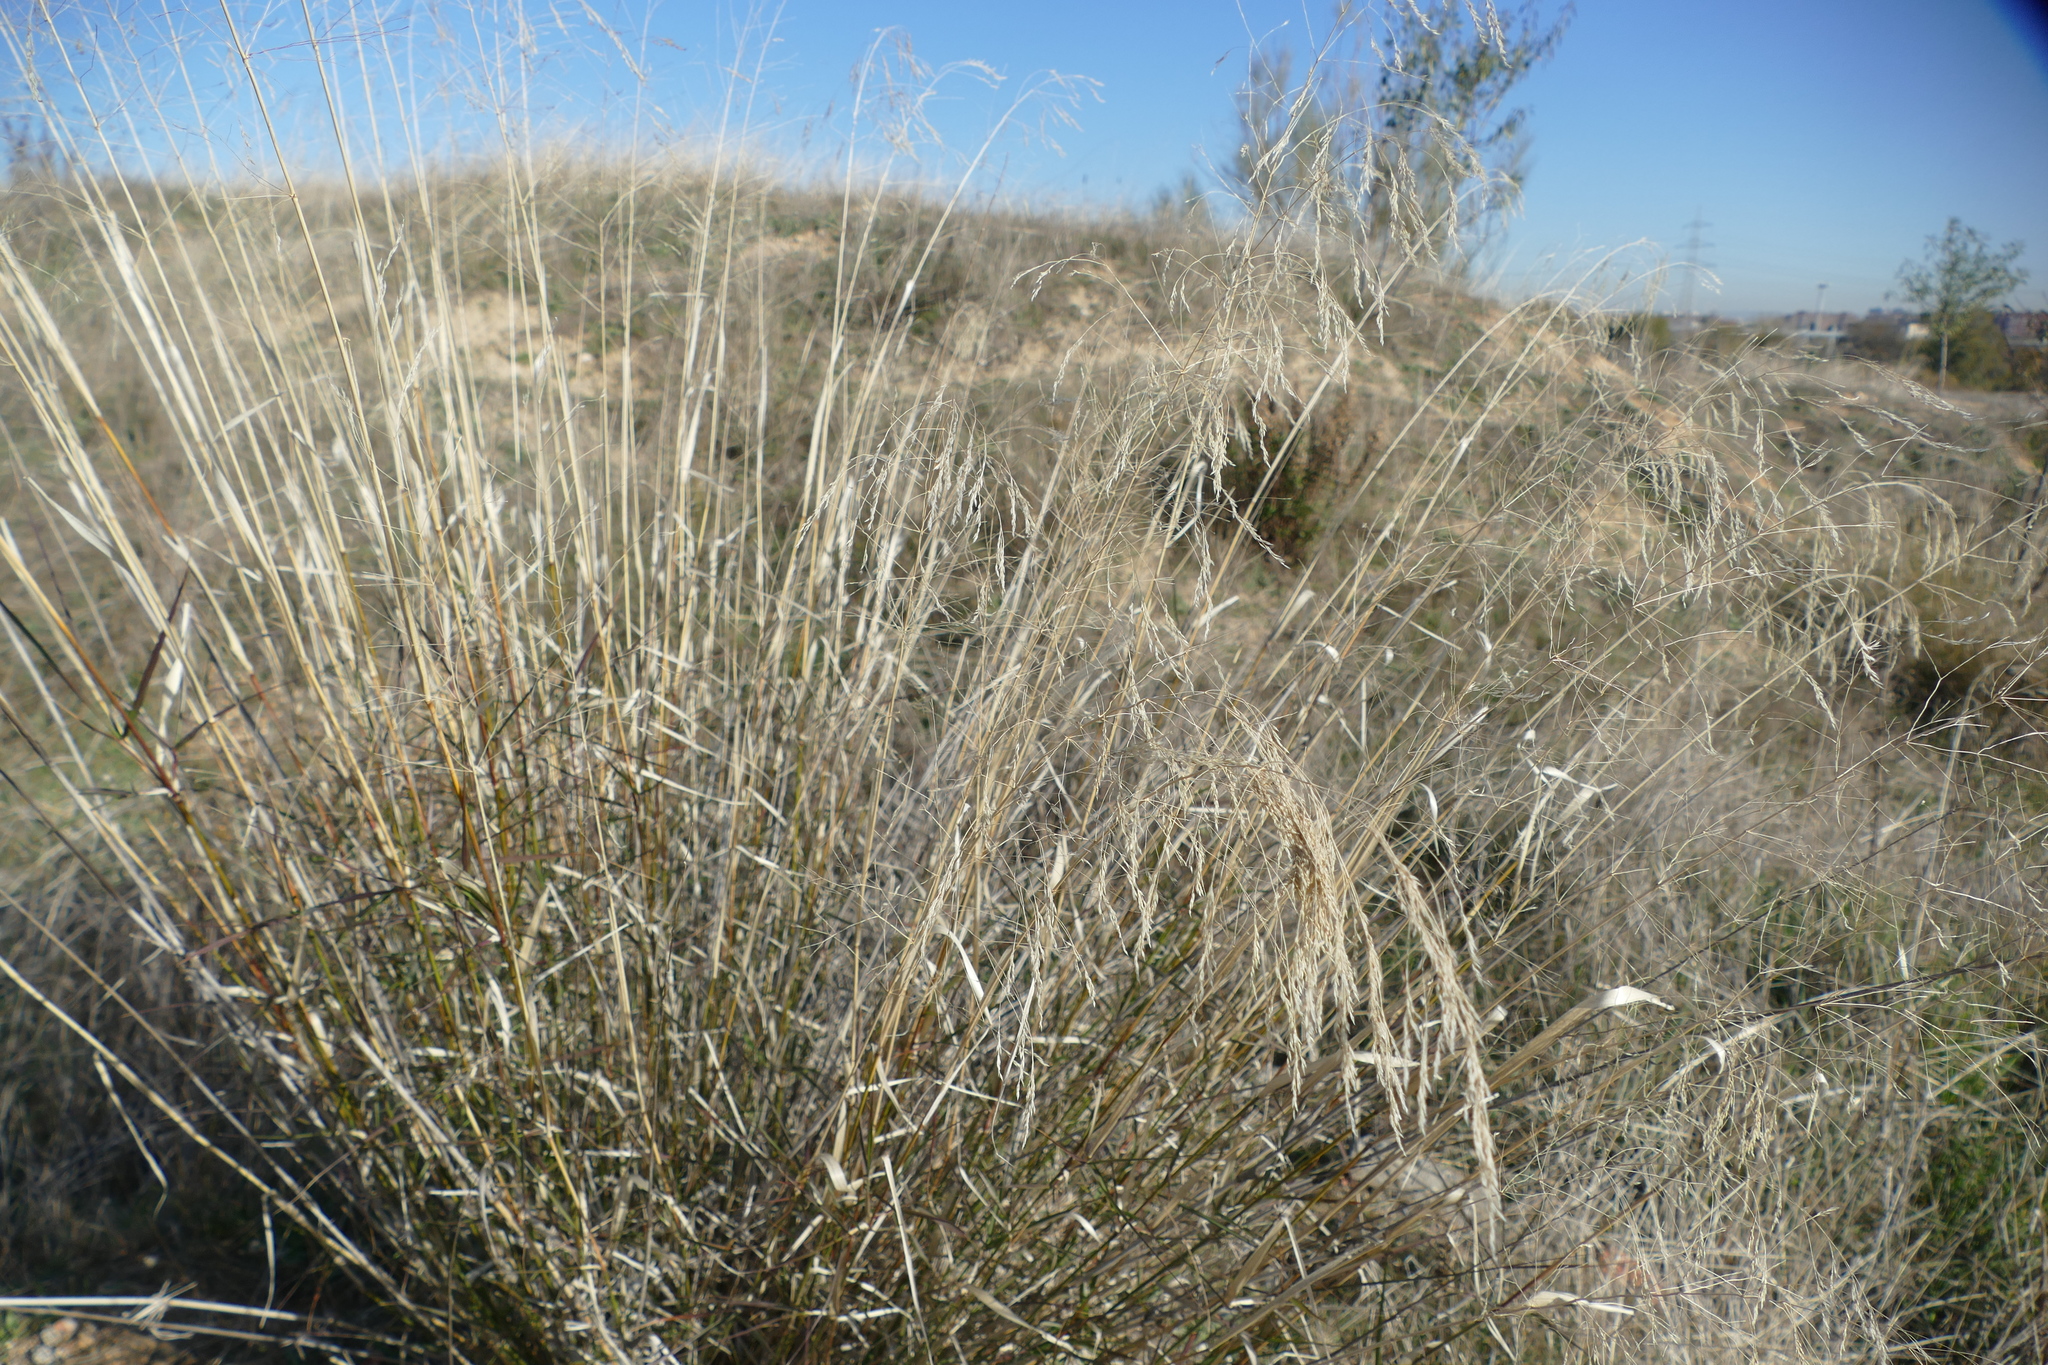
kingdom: Plantae
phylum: Tracheophyta
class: Liliopsida
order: Poales
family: Poaceae
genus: Oloptum
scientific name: Oloptum miliaceum
